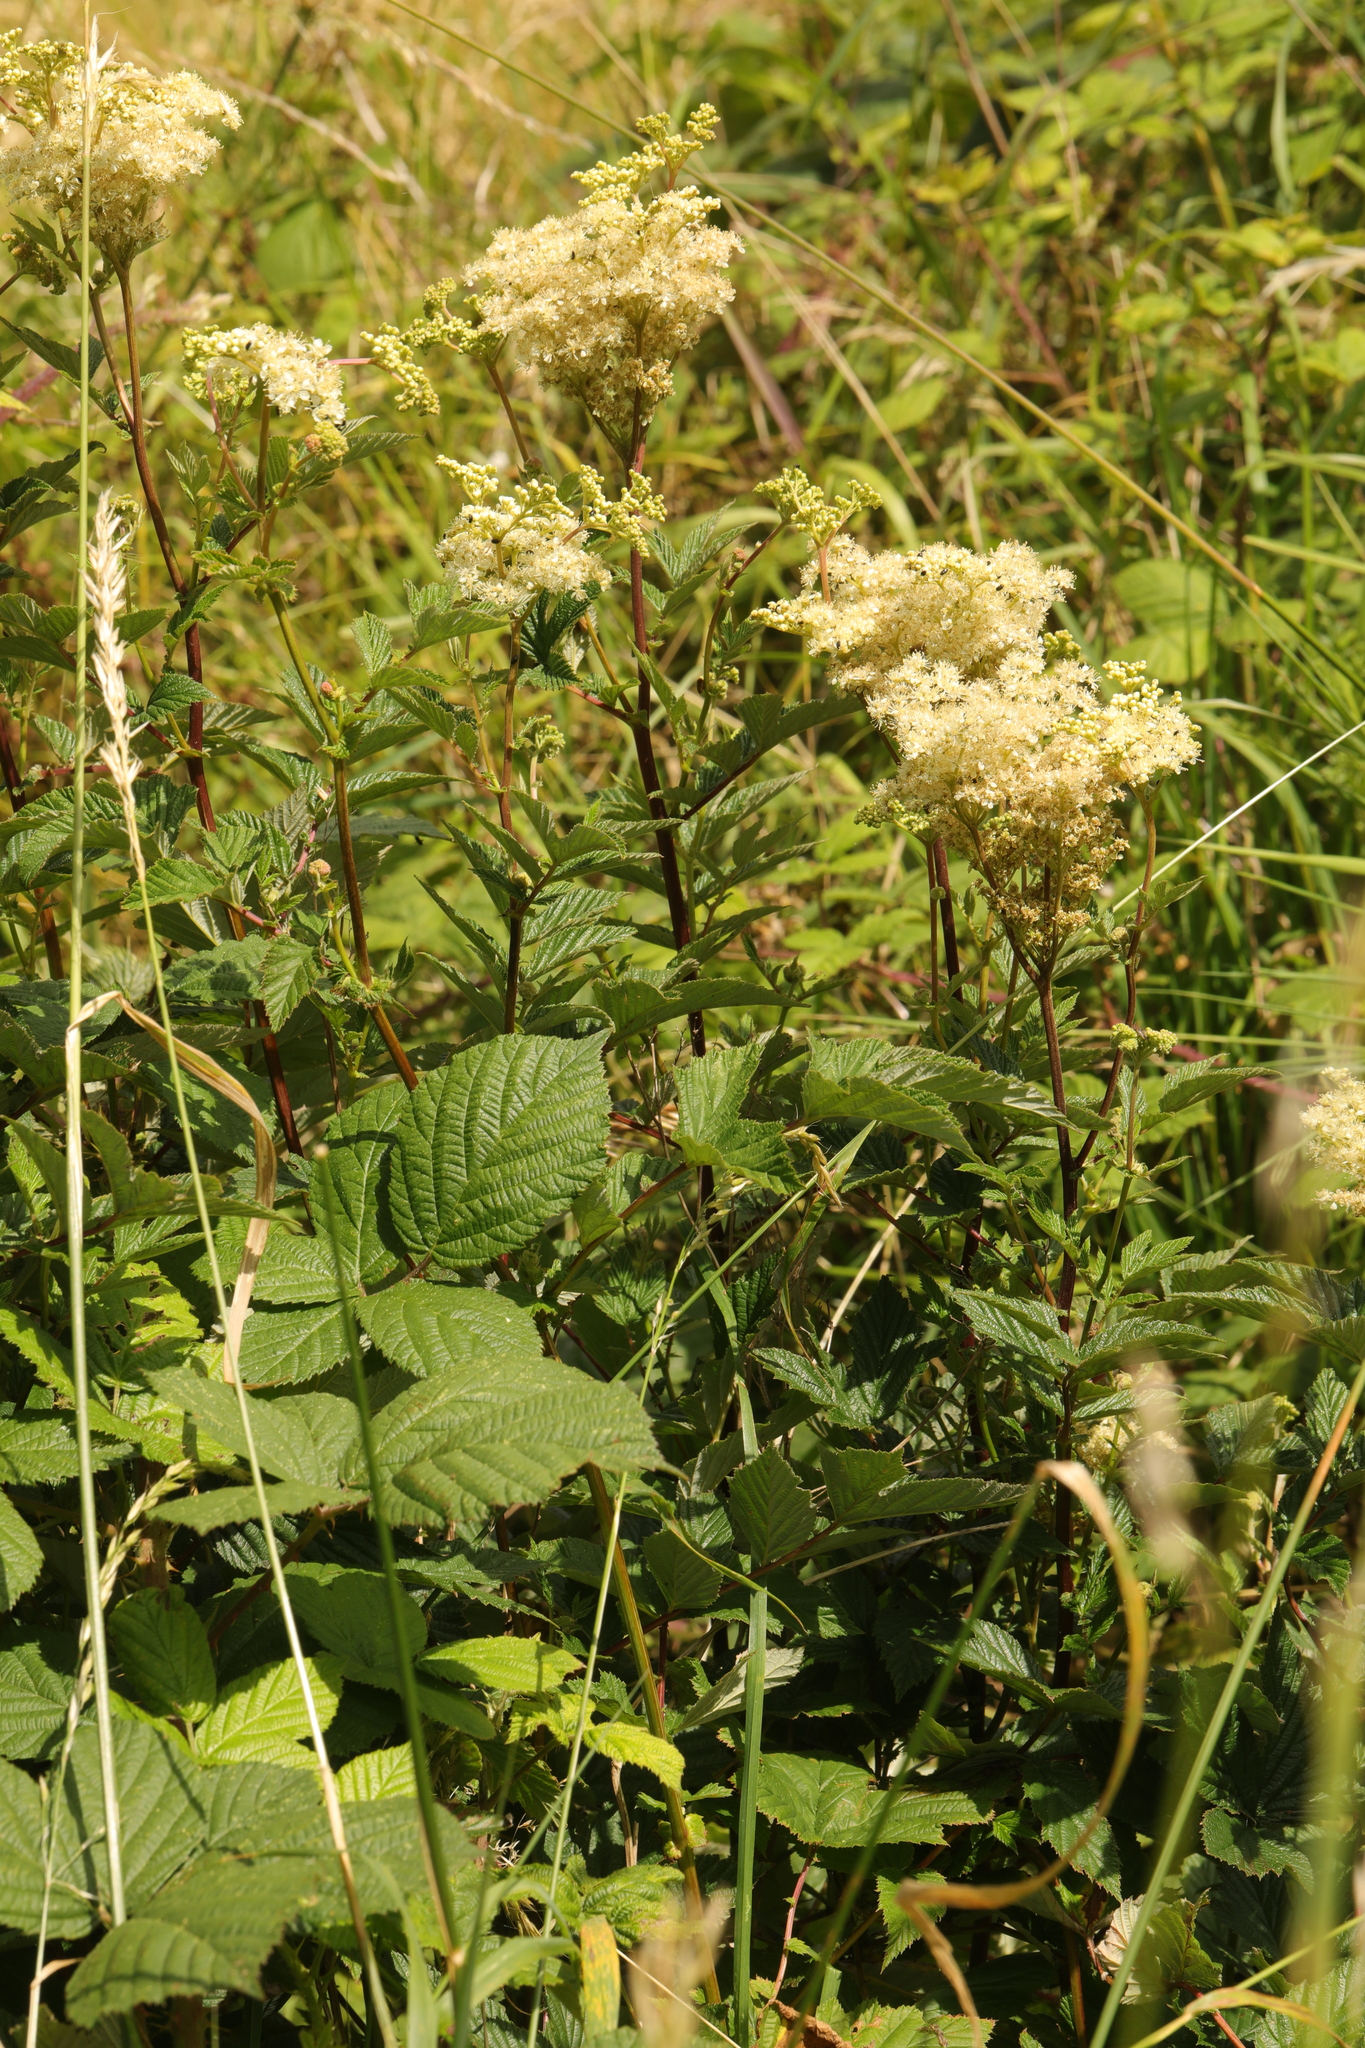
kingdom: Plantae
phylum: Tracheophyta
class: Magnoliopsida
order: Rosales
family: Rosaceae
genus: Filipendula
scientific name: Filipendula ulmaria
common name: Meadowsweet
